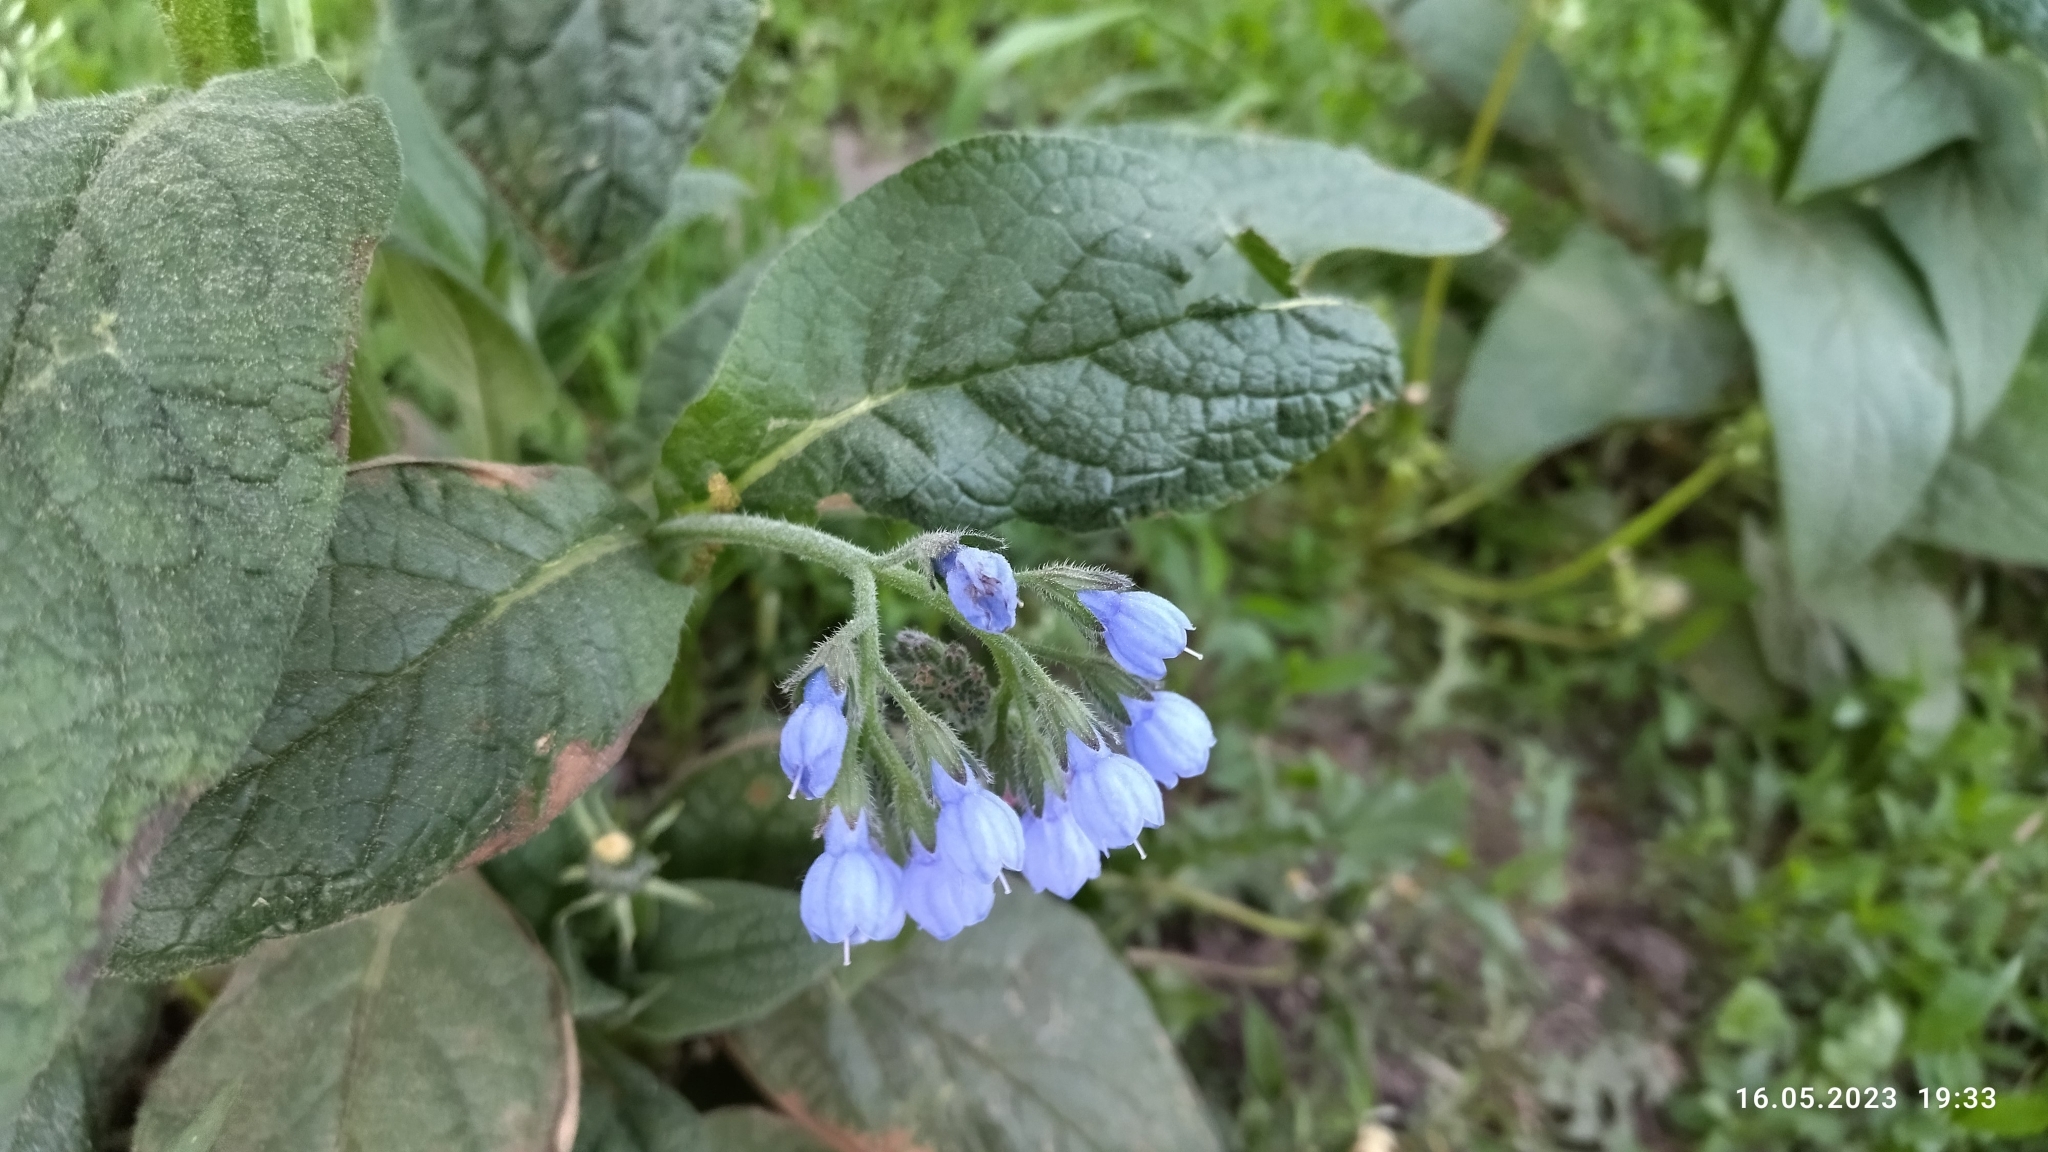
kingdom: Plantae
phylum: Tracheophyta
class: Magnoliopsida
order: Boraginales
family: Boraginaceae
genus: Symphytum
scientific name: Symphytum caucasicum
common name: Caucasian comfrey
